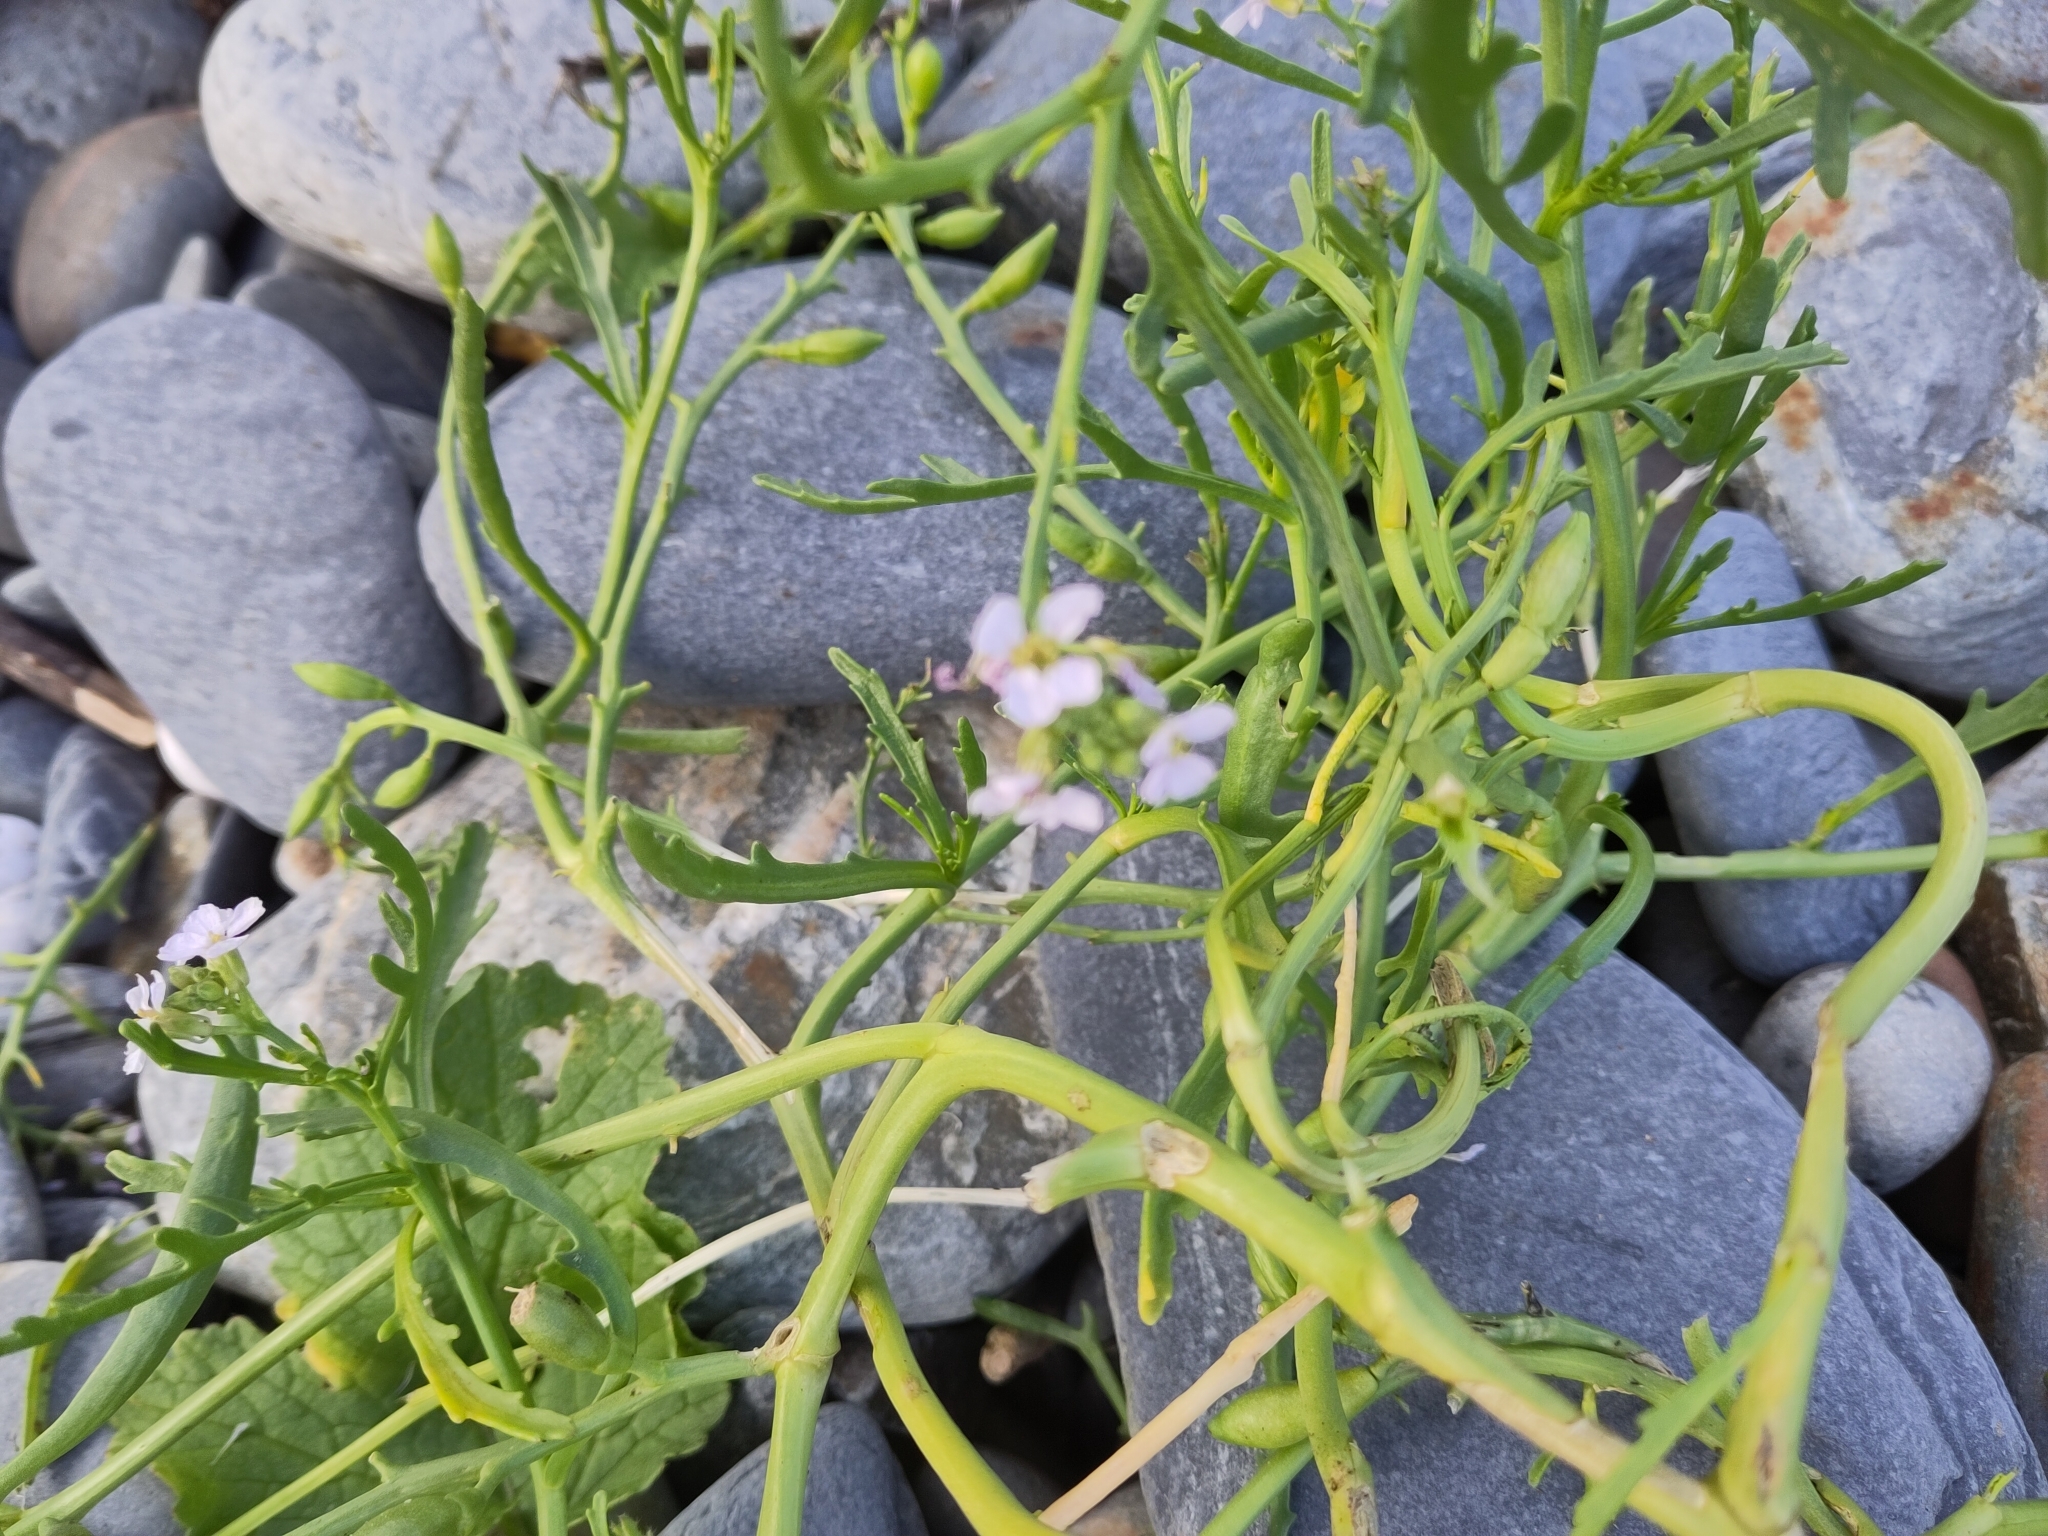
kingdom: Plantae
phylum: Tracheophyta
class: Magnoliopsida
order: Brassicales
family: Brassicaceae
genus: Cakile
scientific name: Cakile maritima
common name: Sea rocket
